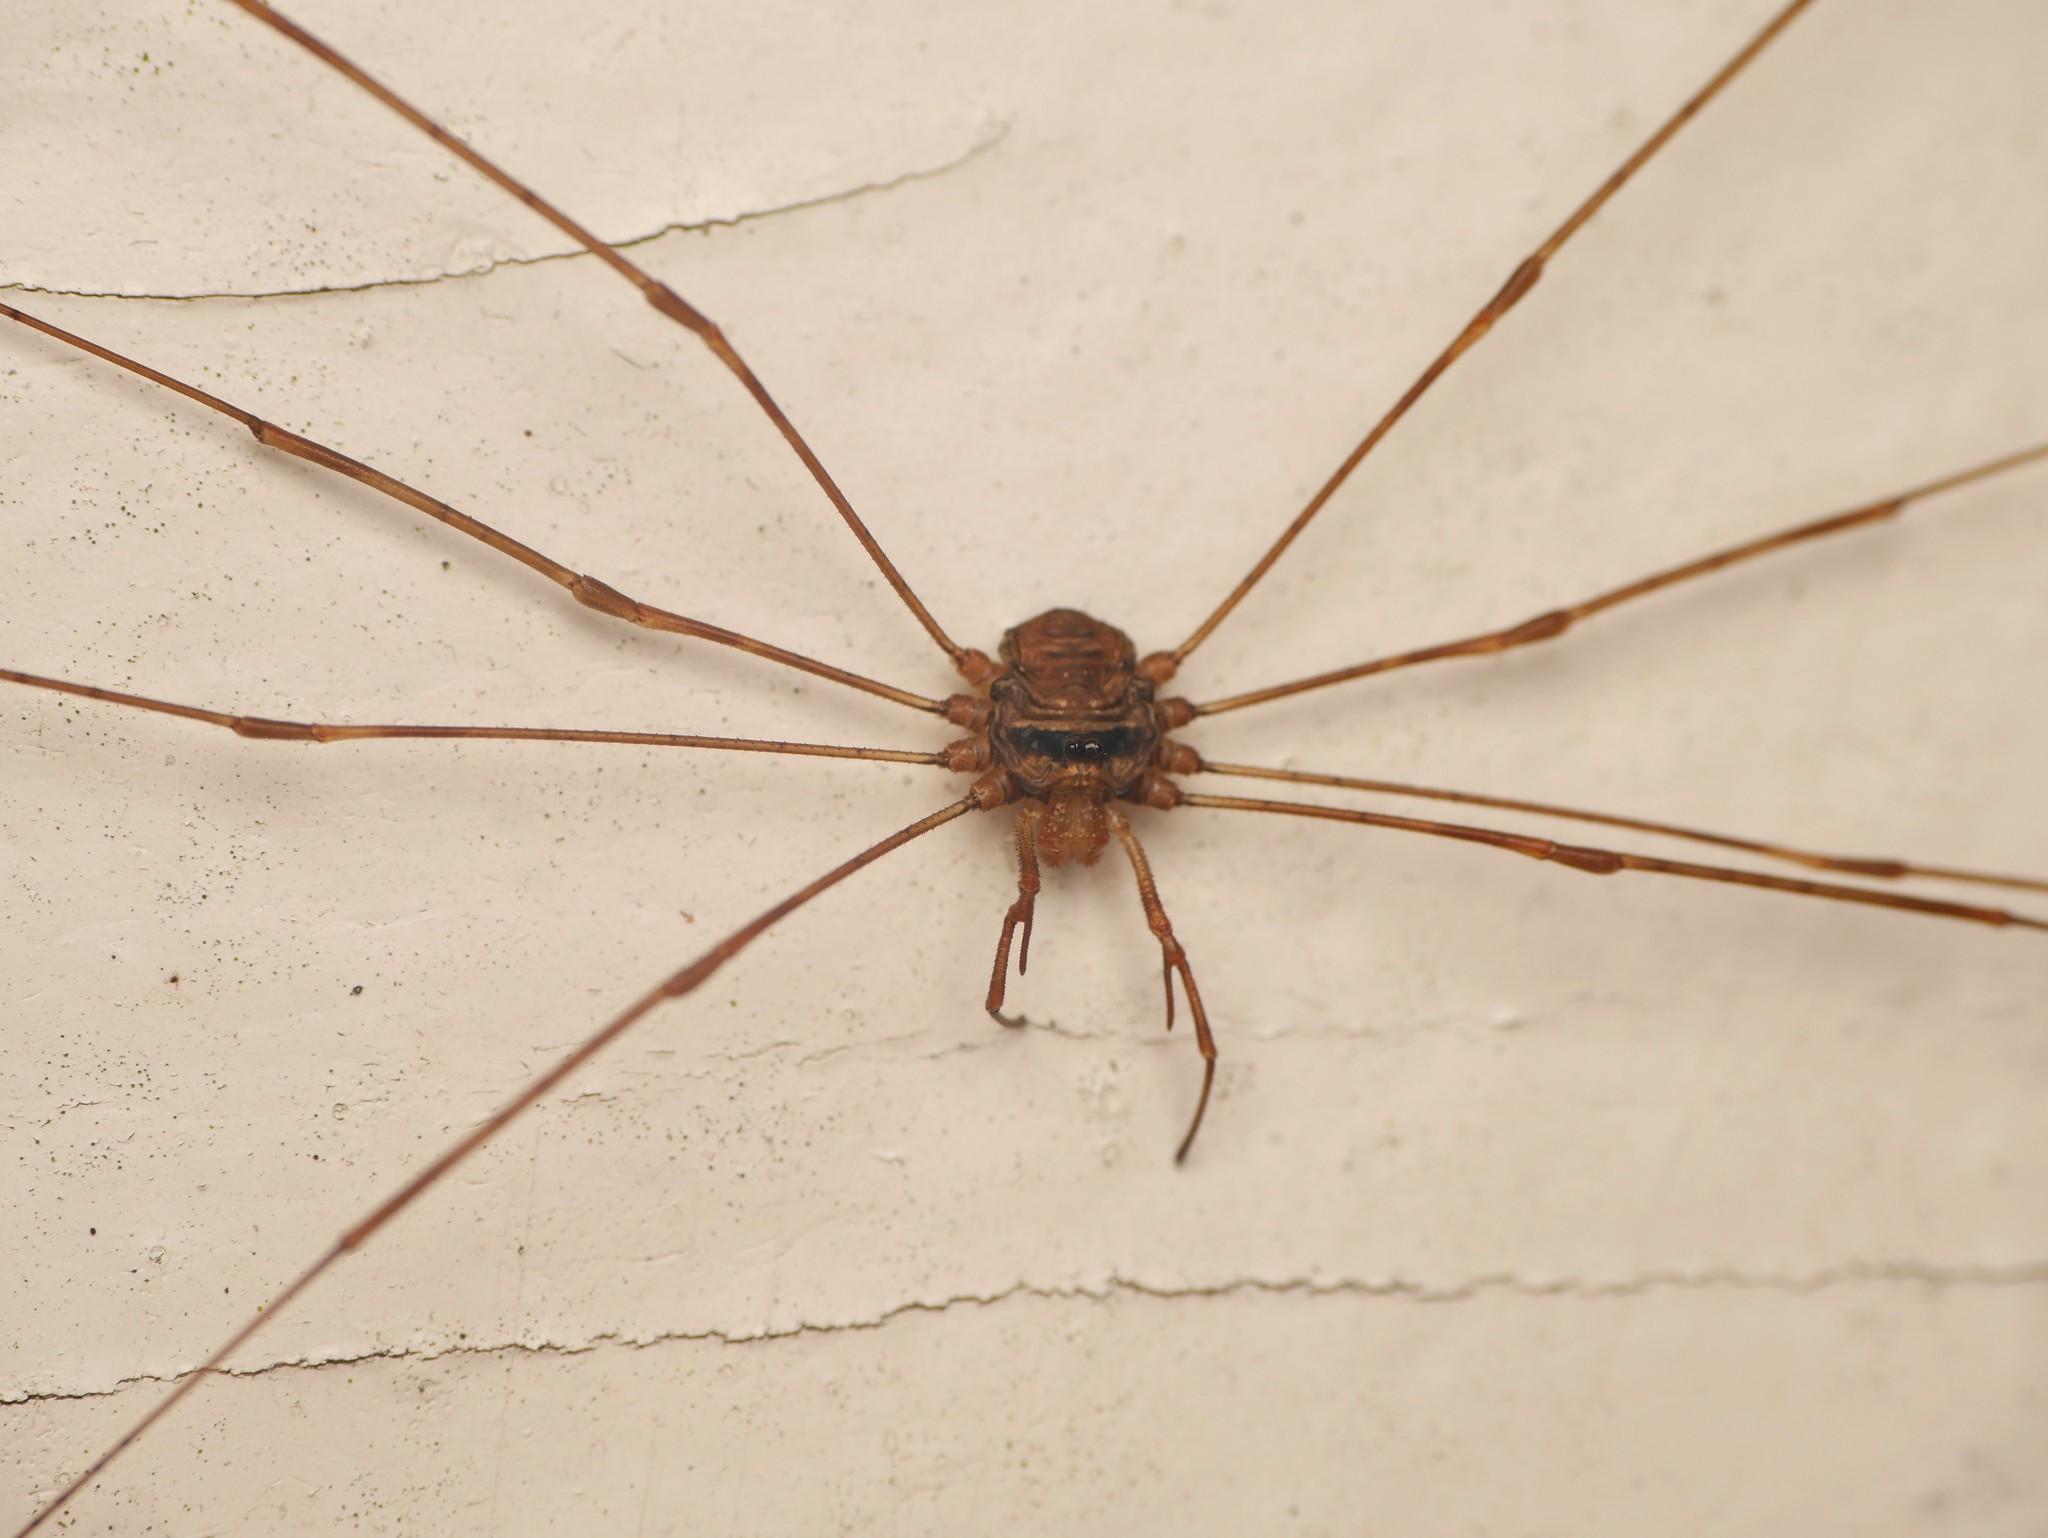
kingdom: Animalia
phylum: Arthropoda
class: Arachnida
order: Opiliones
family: Phalangiidae
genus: Dicranopalpus
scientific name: Dicranopalpus ramosus
